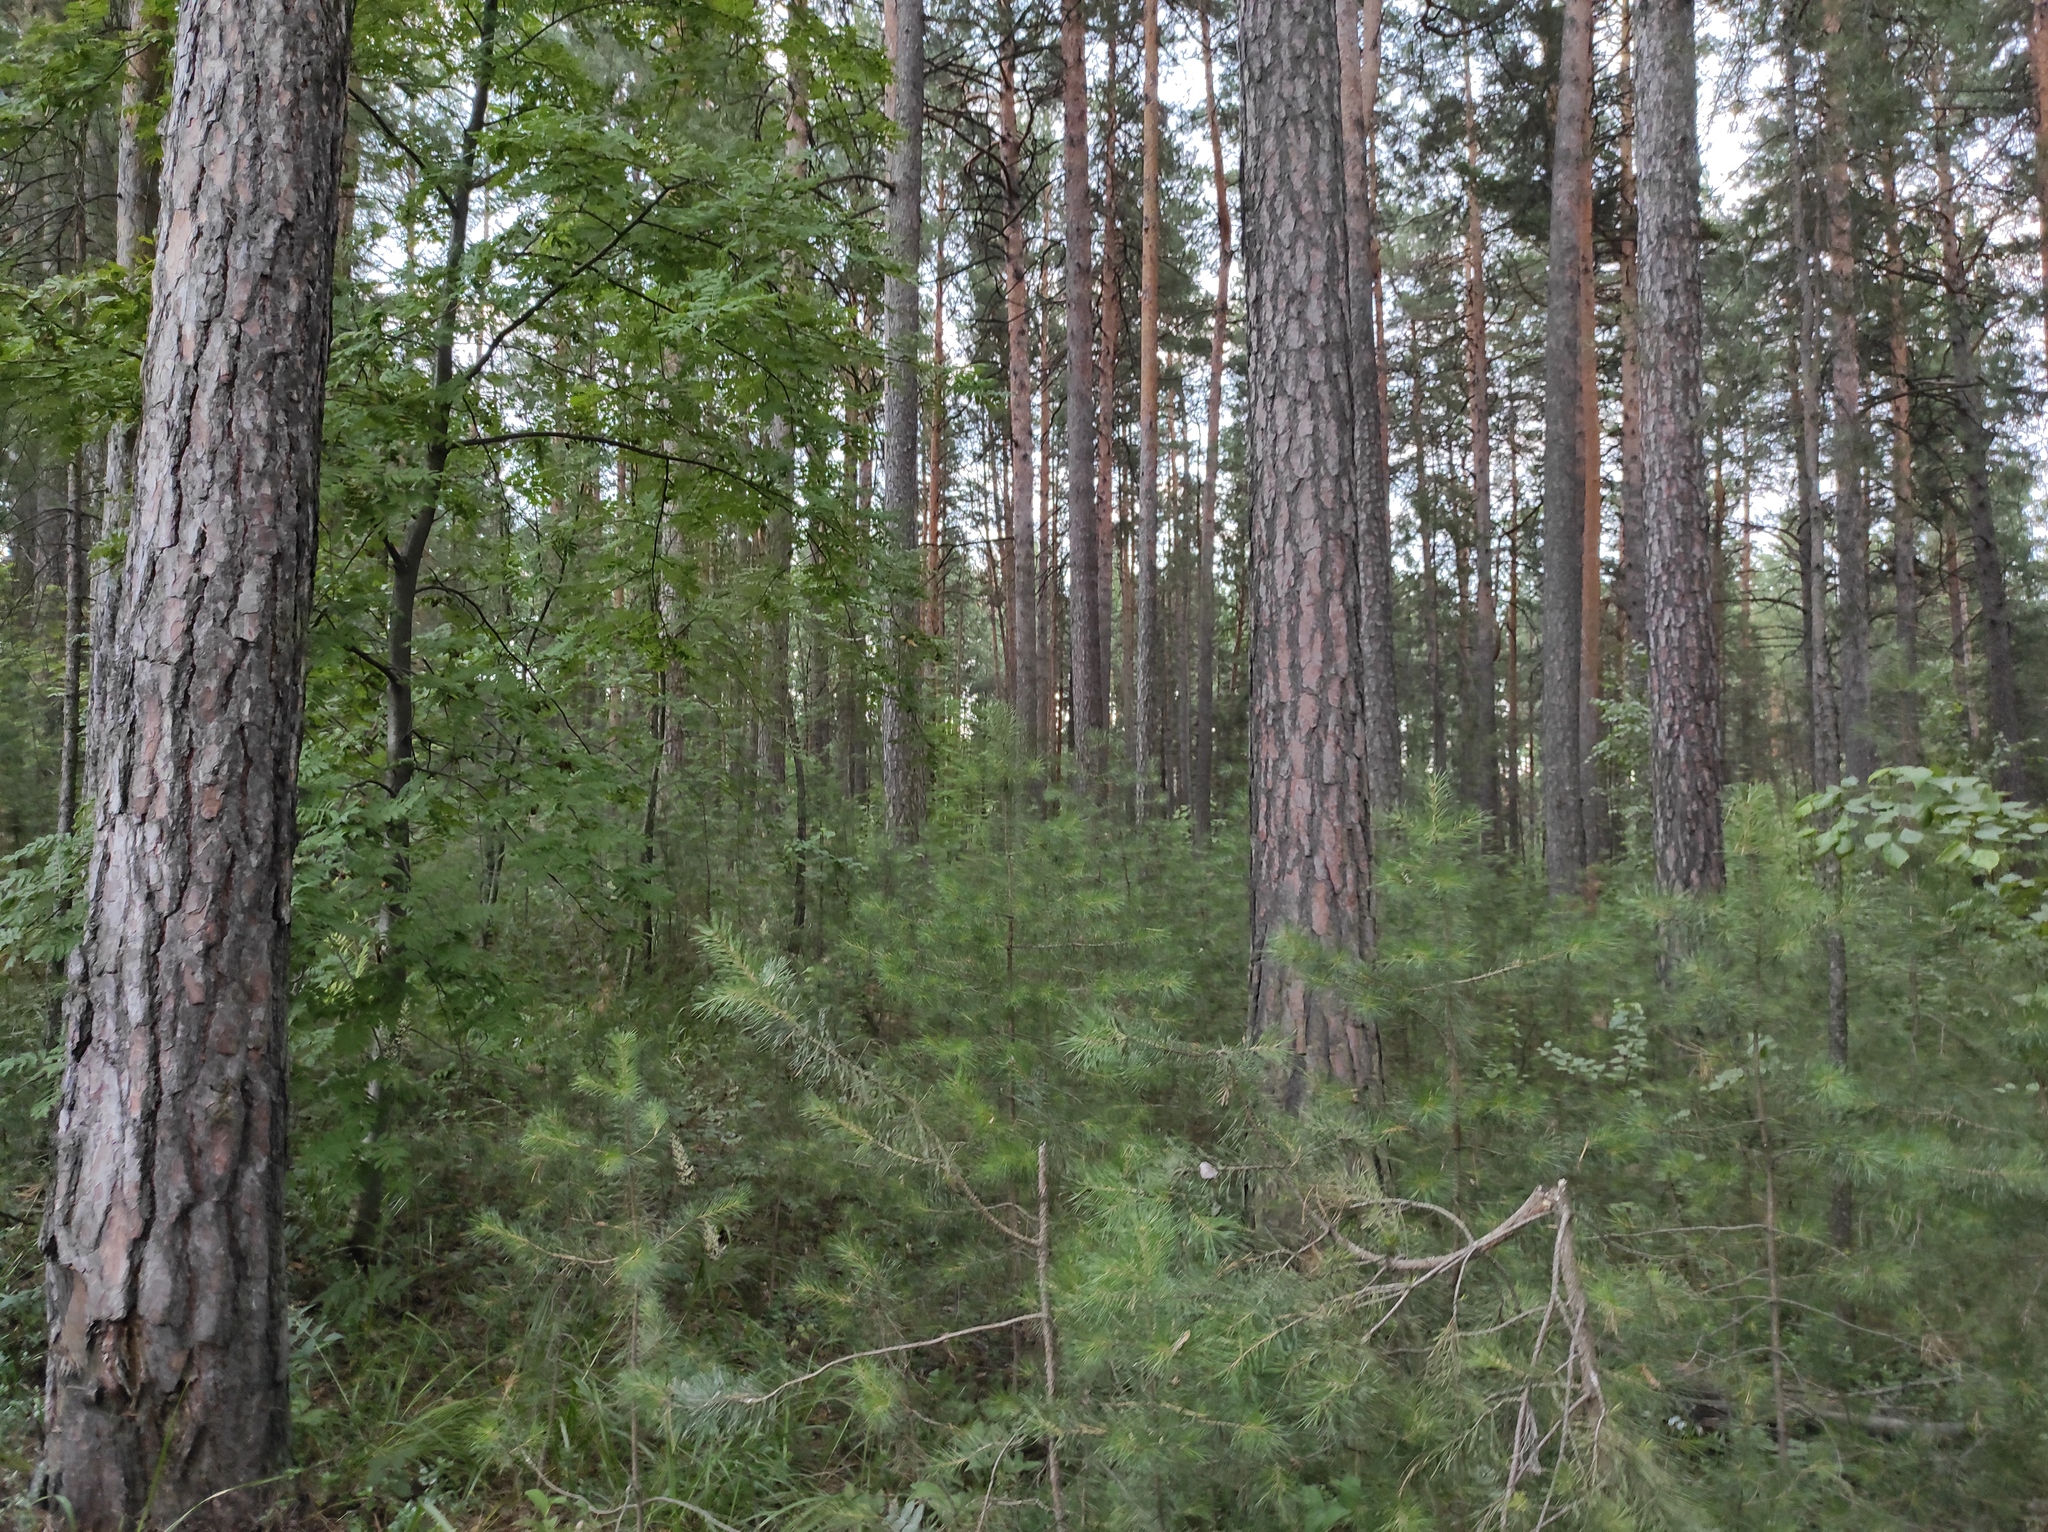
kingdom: Plantae
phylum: Tracheophyta
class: Pinopsida
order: Pinales
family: Pinaceae
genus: Pinus
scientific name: Pinus sylvestris
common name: Scots pine
